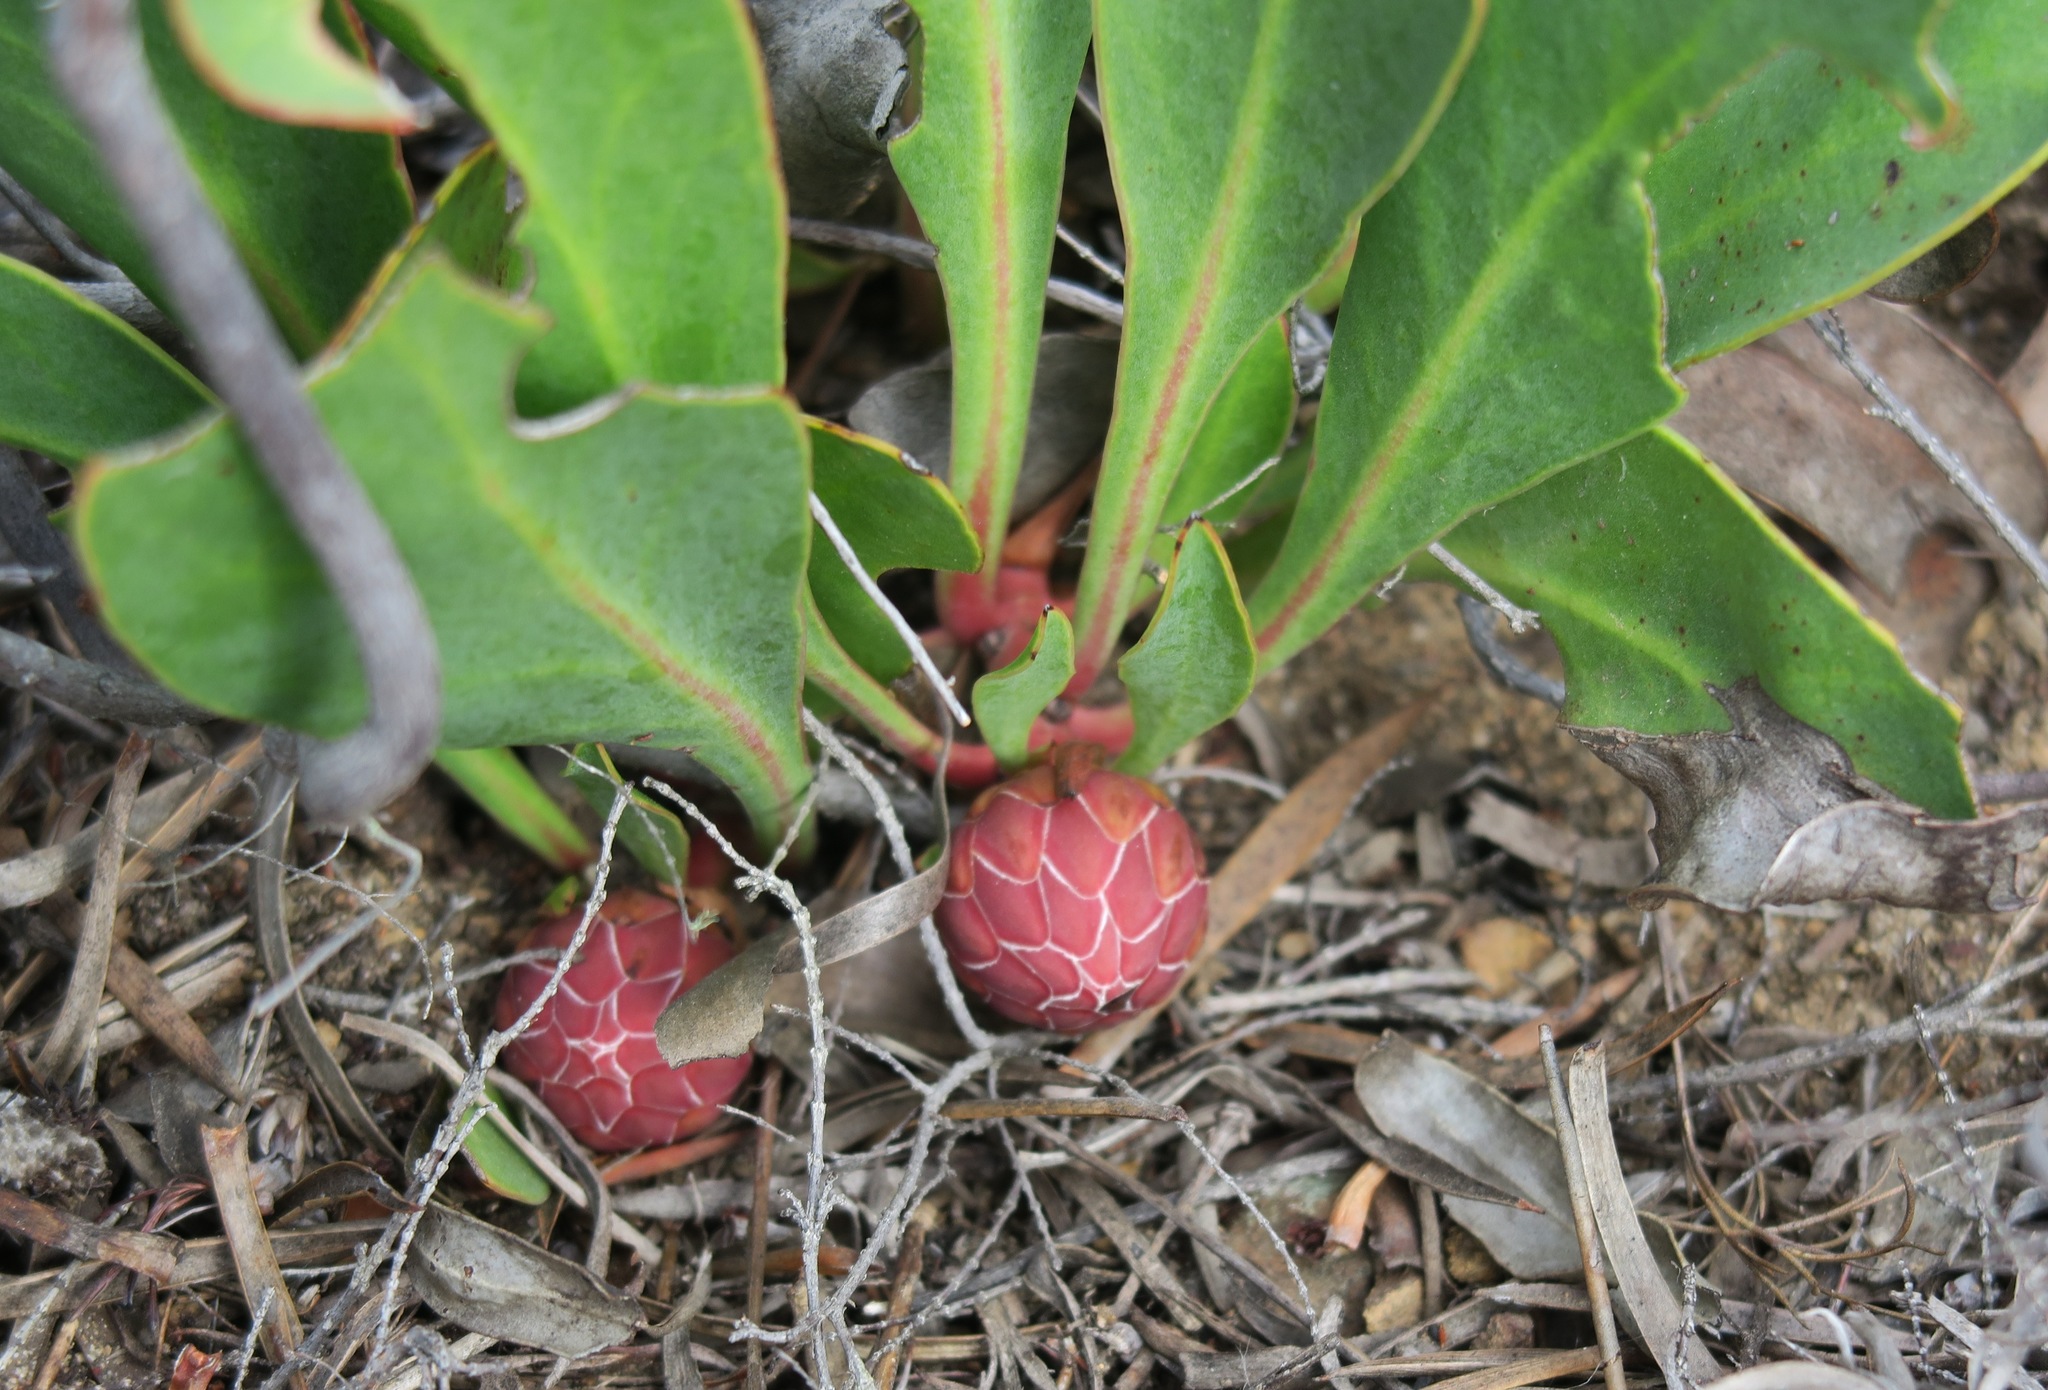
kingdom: Plantae
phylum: Tracheophyta
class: Magnoliopsida
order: Proteales
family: Proteaceae
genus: Protea
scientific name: Protea acaulos
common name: Common ground sugarbush
